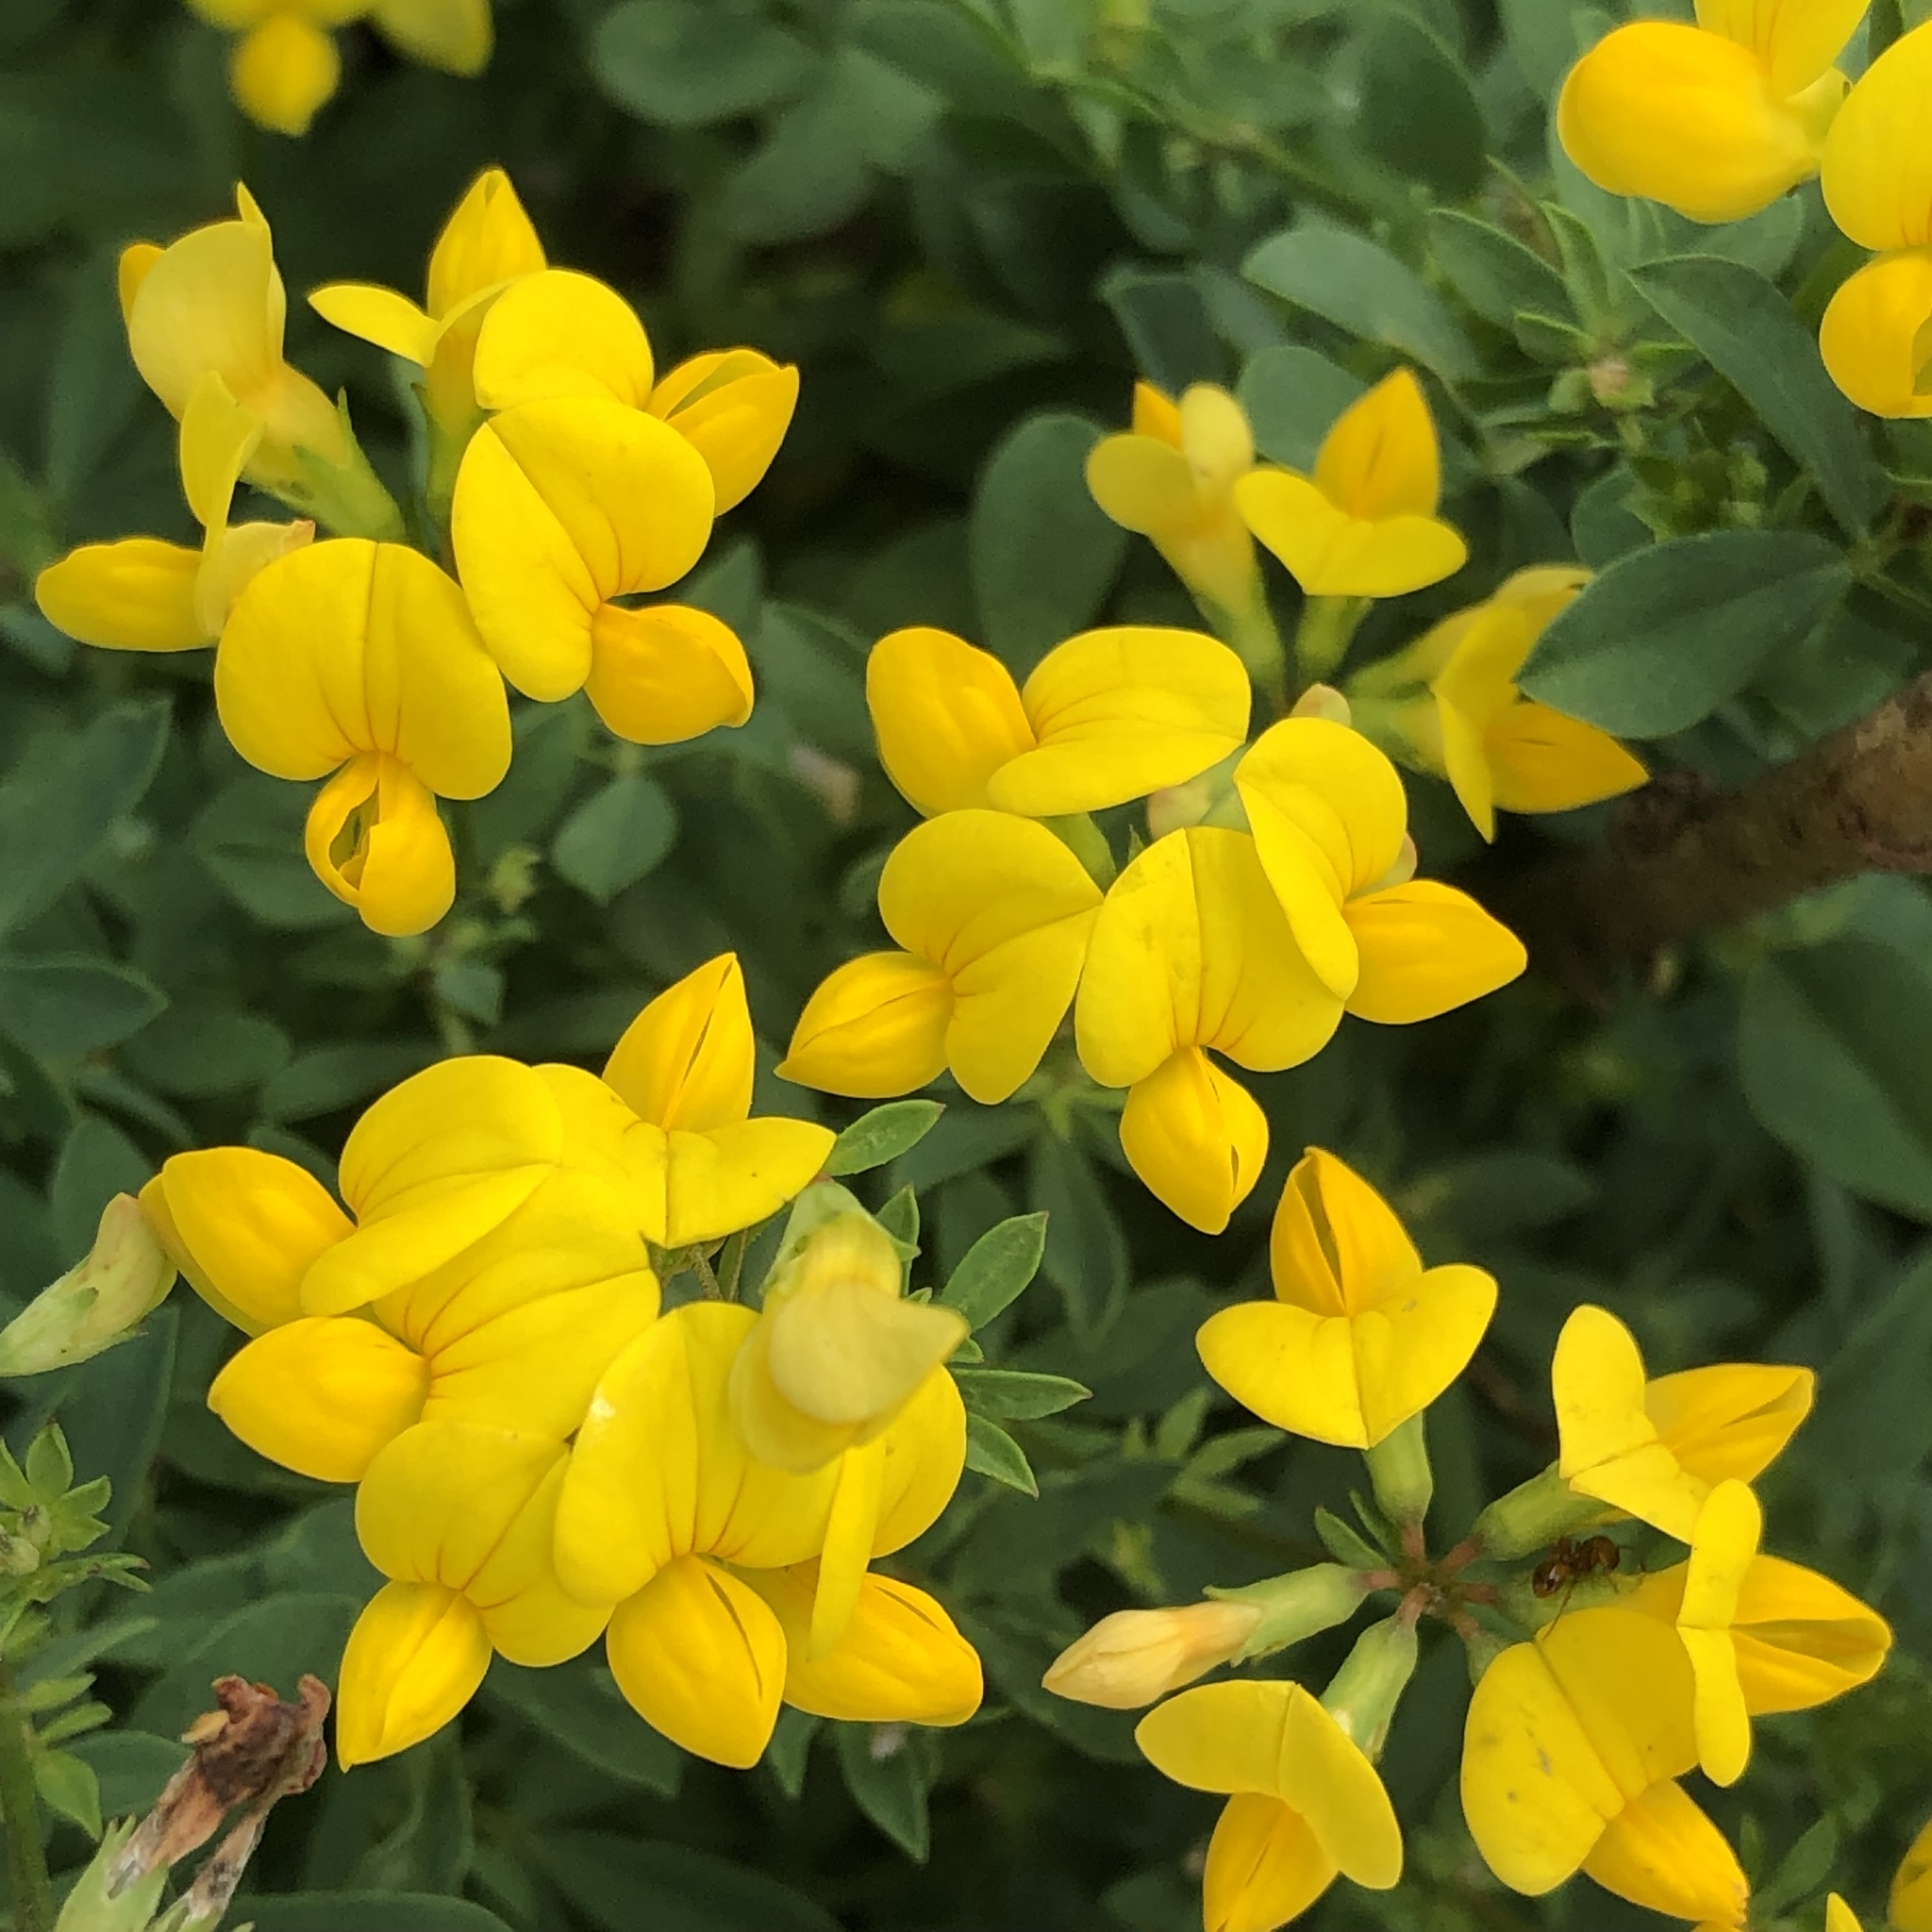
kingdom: Plantae
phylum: Tracheophyta
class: Magnoliopsida
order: Fabales
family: Fabaceae
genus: Lotus
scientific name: Lotus corniculatus
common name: Common bird's-foot-trefoil
